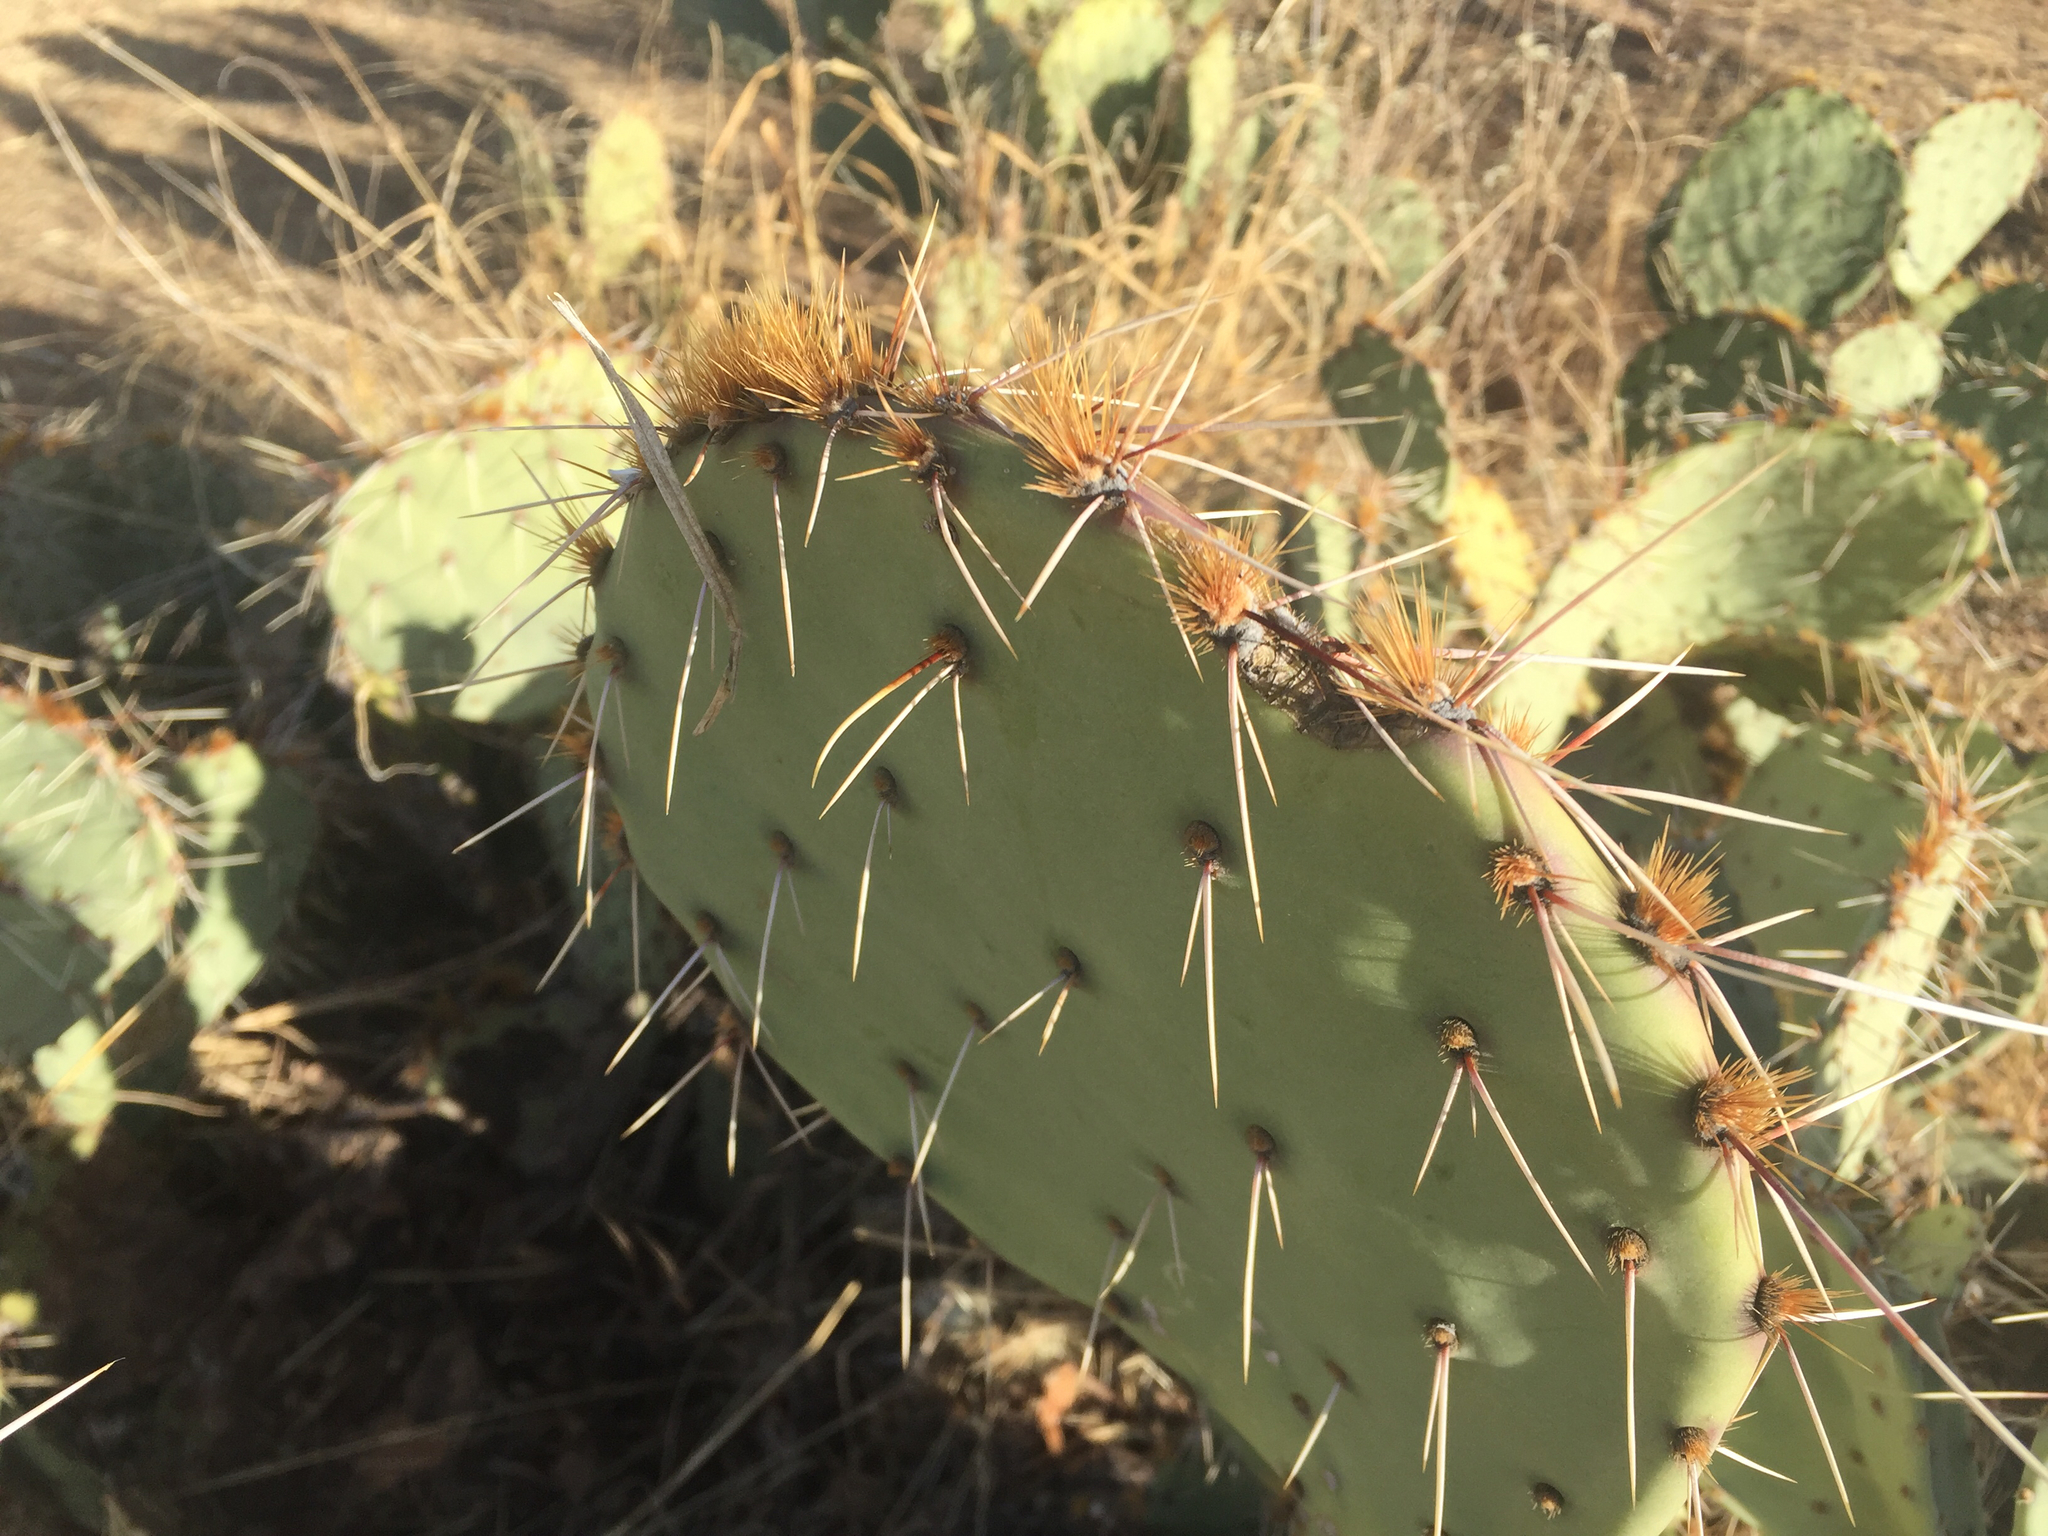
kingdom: Plantae
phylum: Tracheophyta
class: Magnoliopsida
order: Caryophyllales
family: Cactaceae
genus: Opuntia
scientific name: Opuntia engelmannii
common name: Cactus-apple
